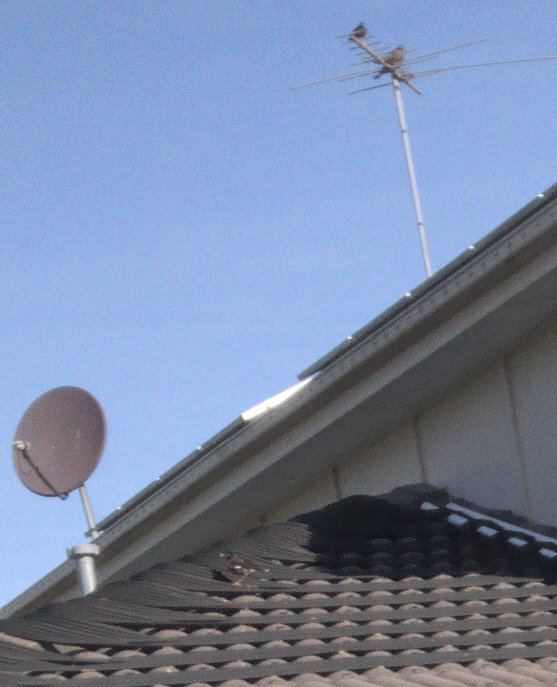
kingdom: Animalia
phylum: Chordata
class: Aves
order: Passeriformes
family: Sturnidae
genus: Acridotheres
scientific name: Acridotheres tristis
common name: Common myna
